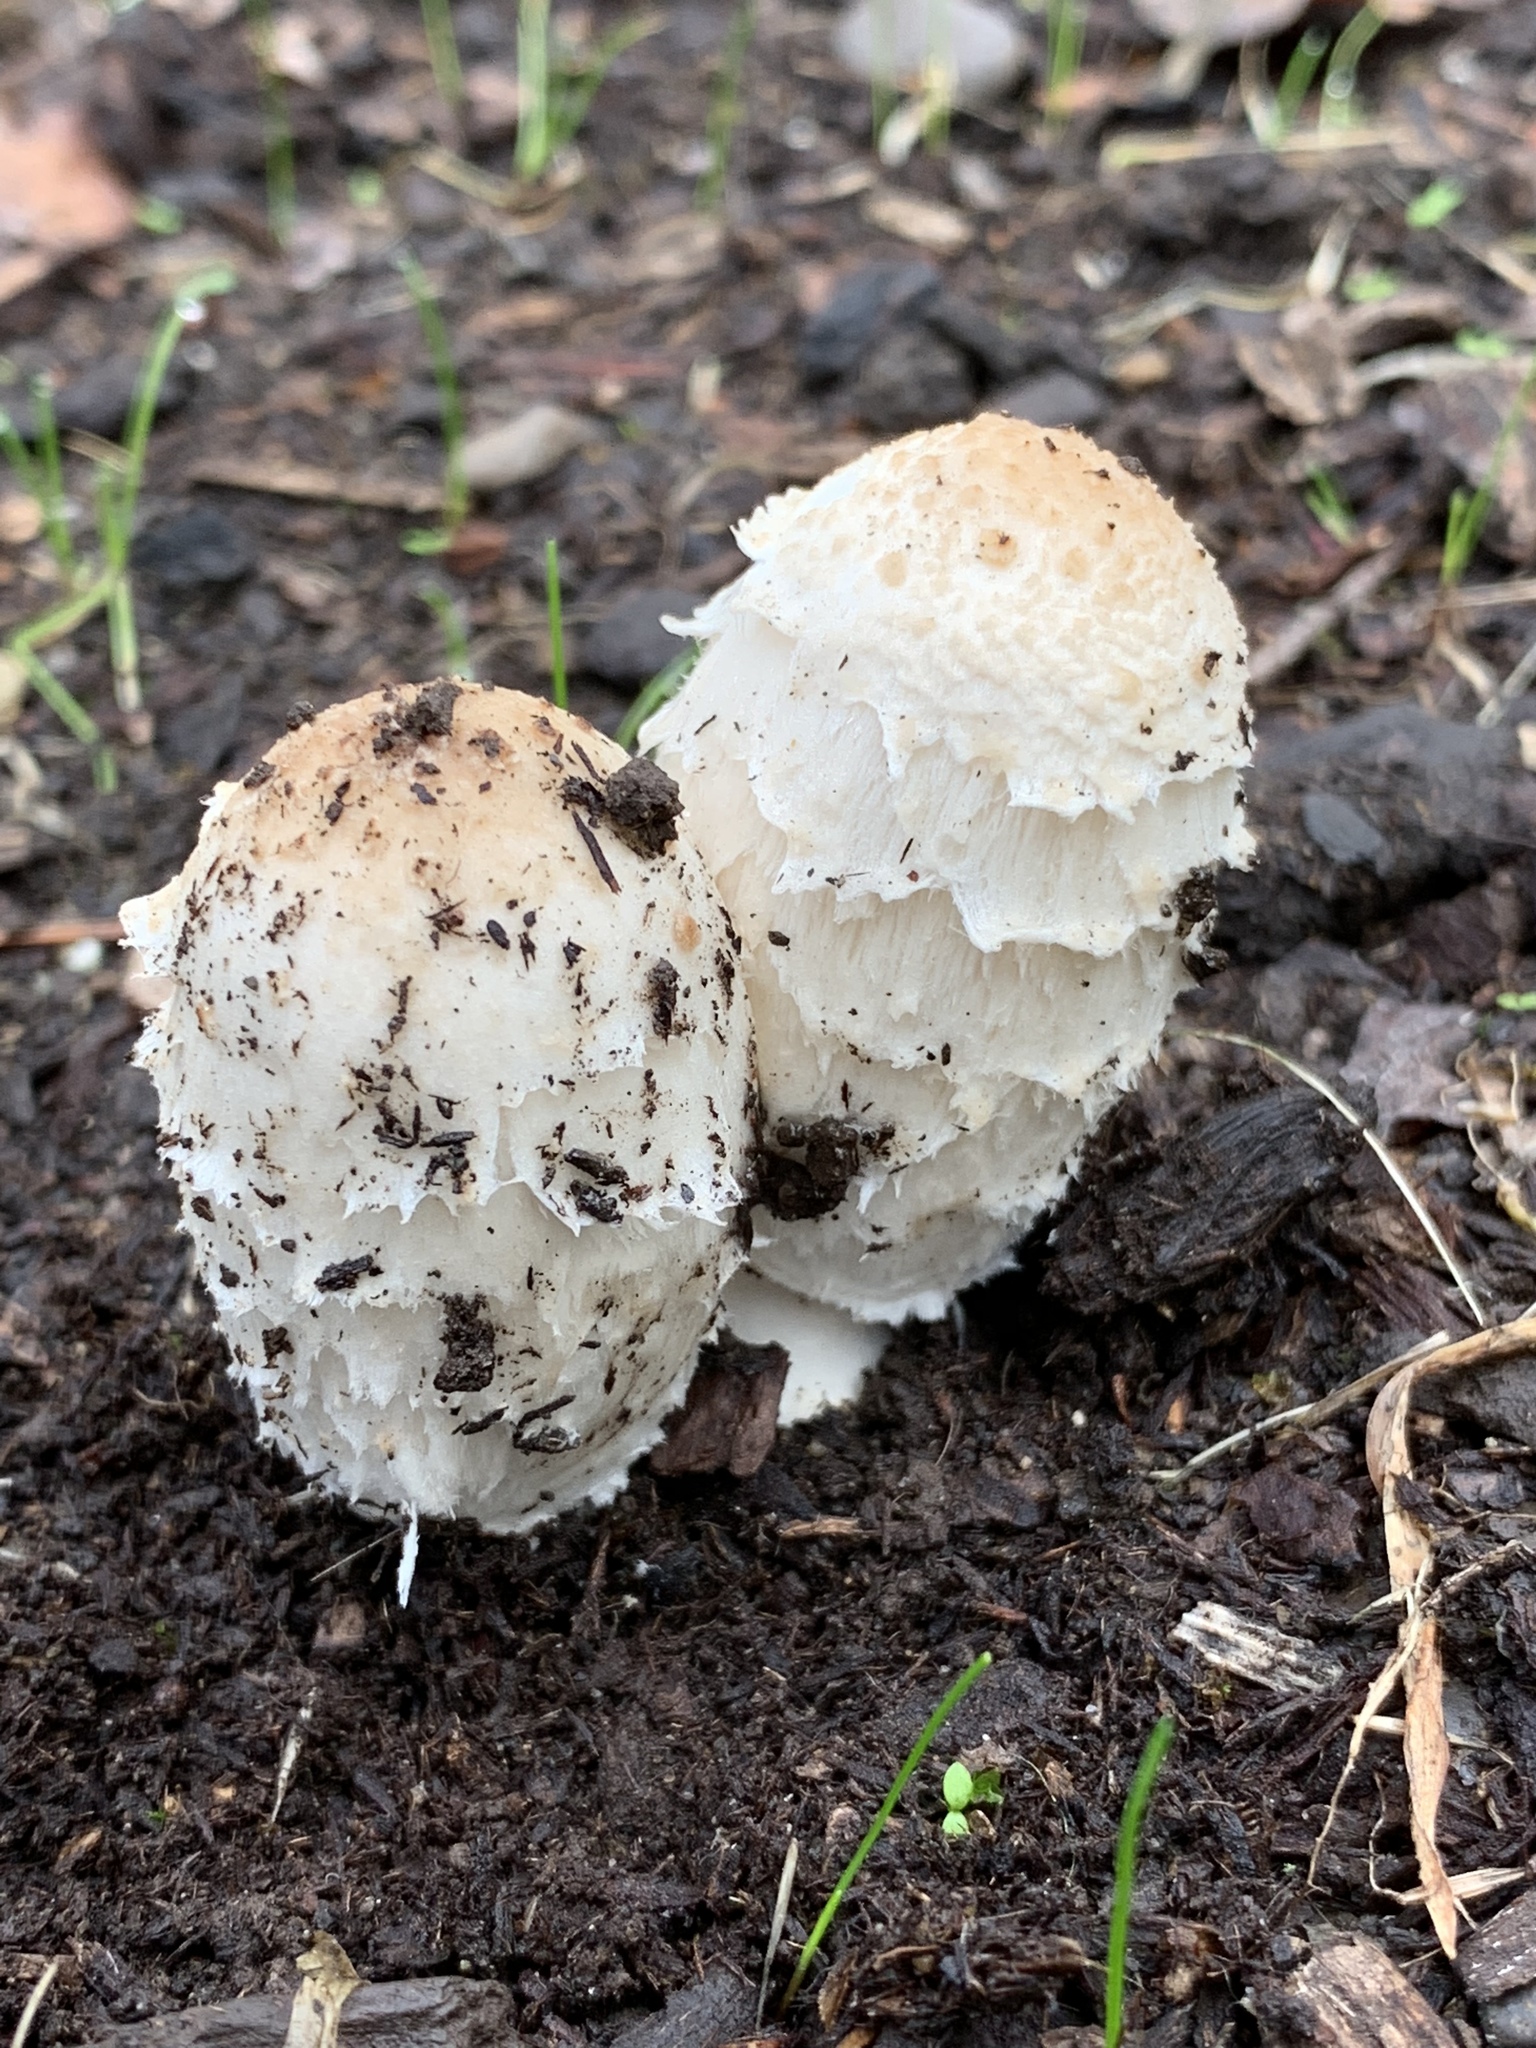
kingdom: Fungi
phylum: Basidiomycota
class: Agaricomycetes
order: Agaricales
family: Agaricaceae
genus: Coprinus
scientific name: Coprinus comatus
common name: Lawyer's wig
